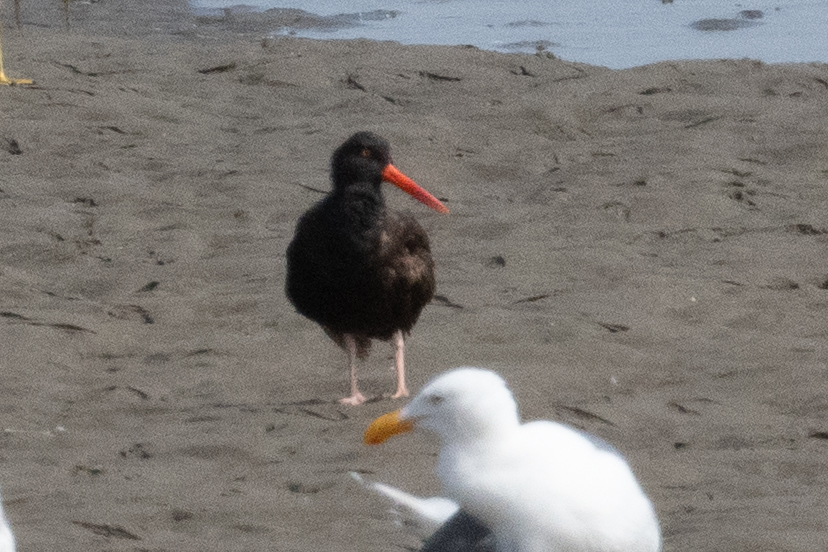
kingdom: Animalia
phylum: Chordata
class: Aves
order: Charadriiformes
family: Haematopodidae
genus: Haematopus
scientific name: Haematopus bachmani
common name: Black oystercatcher
